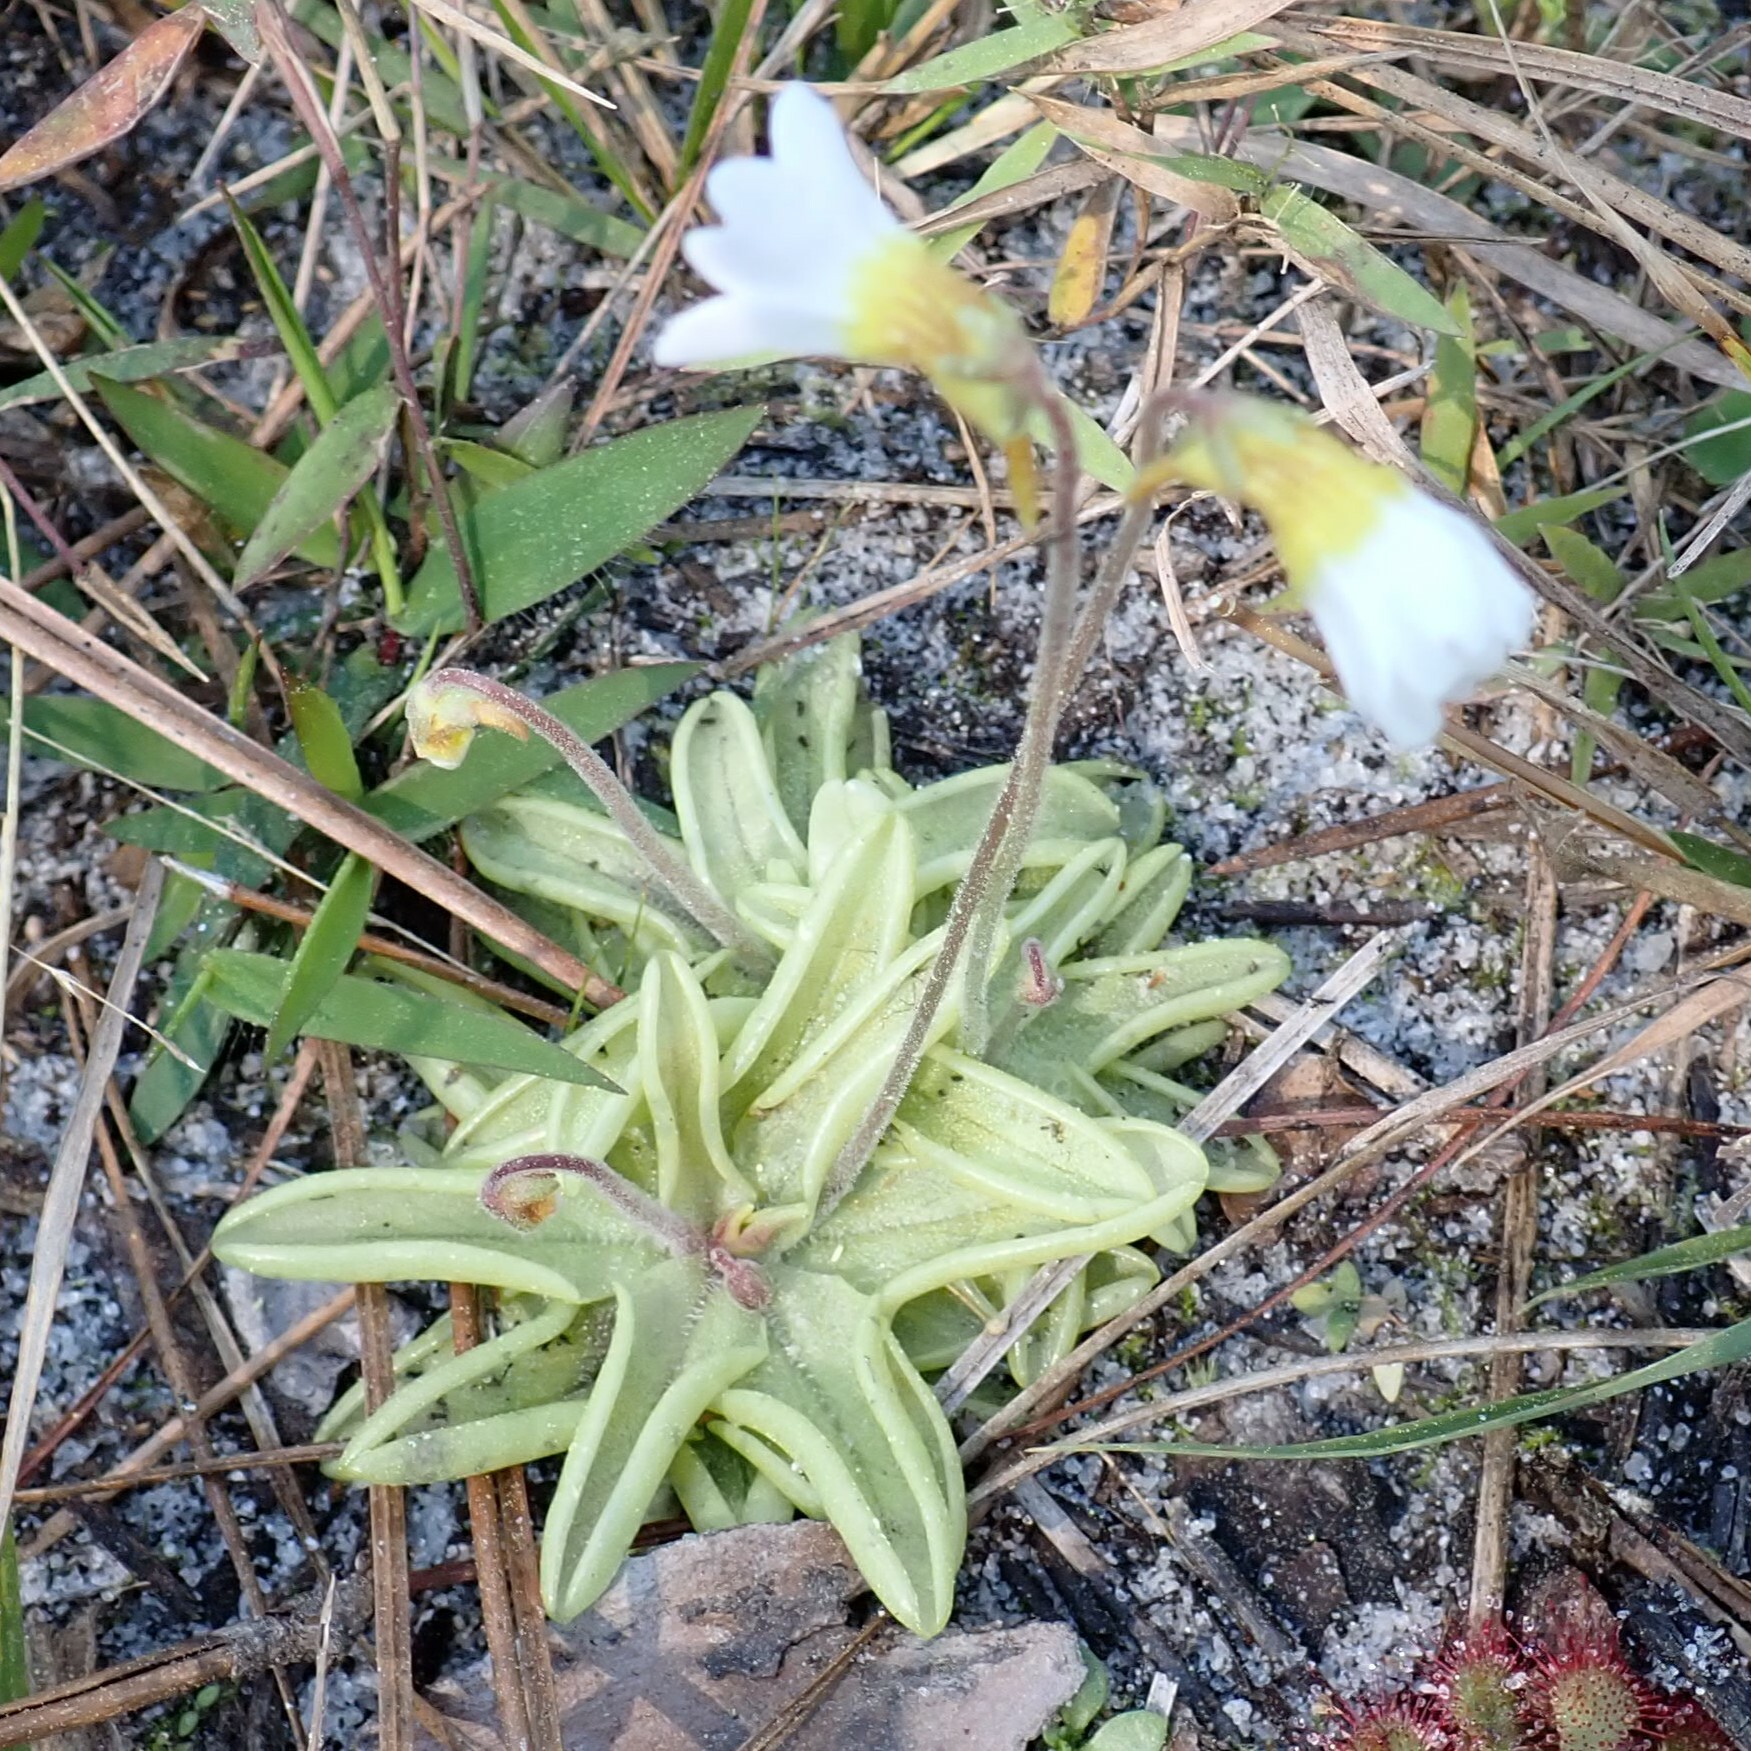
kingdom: Plantae
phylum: Tracheophyta
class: Magnoliopsida
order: Lamiales
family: Lentibulariaceae
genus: Pinguicula
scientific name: Pinguicula pumila
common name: Small butterwort
